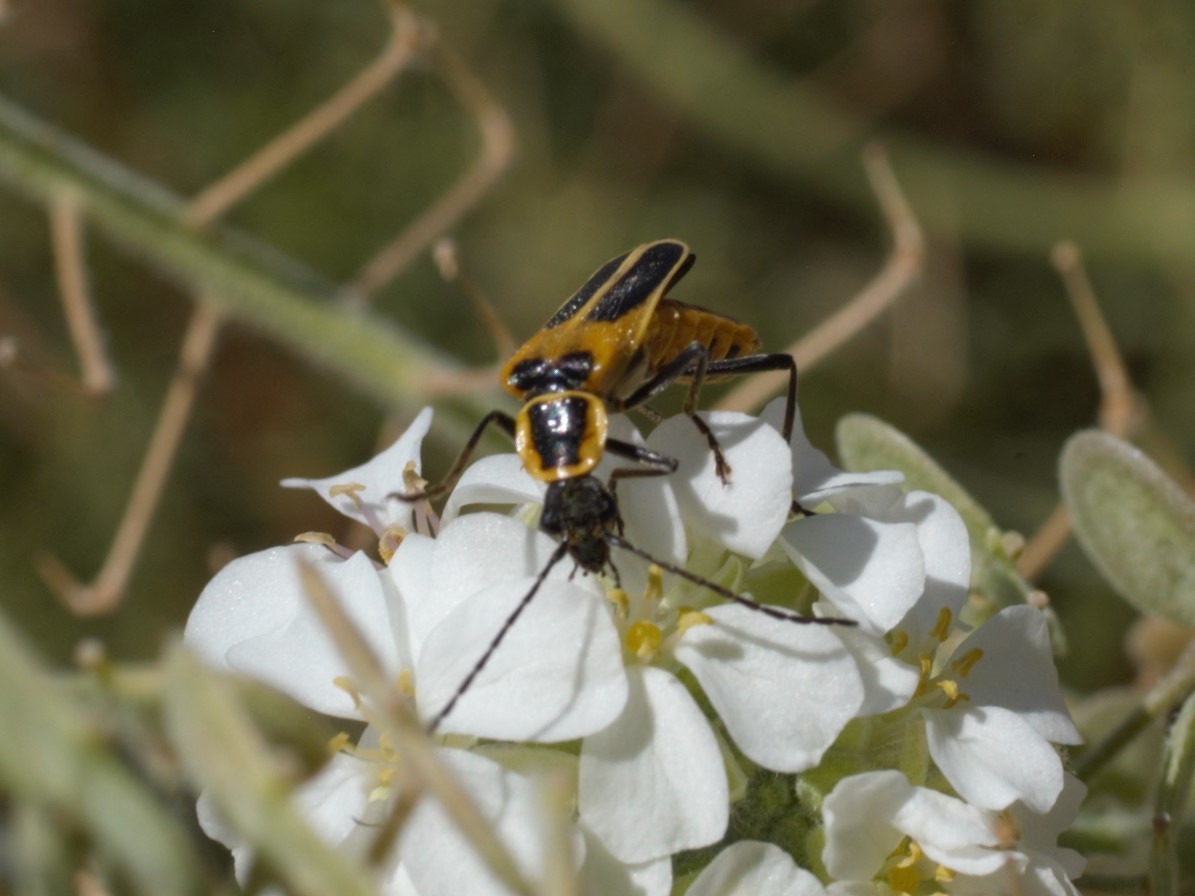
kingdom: Animalia
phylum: Arthropoda
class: Insecta
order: Coleoptera
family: Cantharidae
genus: Chauliognathus
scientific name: Chauliognathus lewisi
